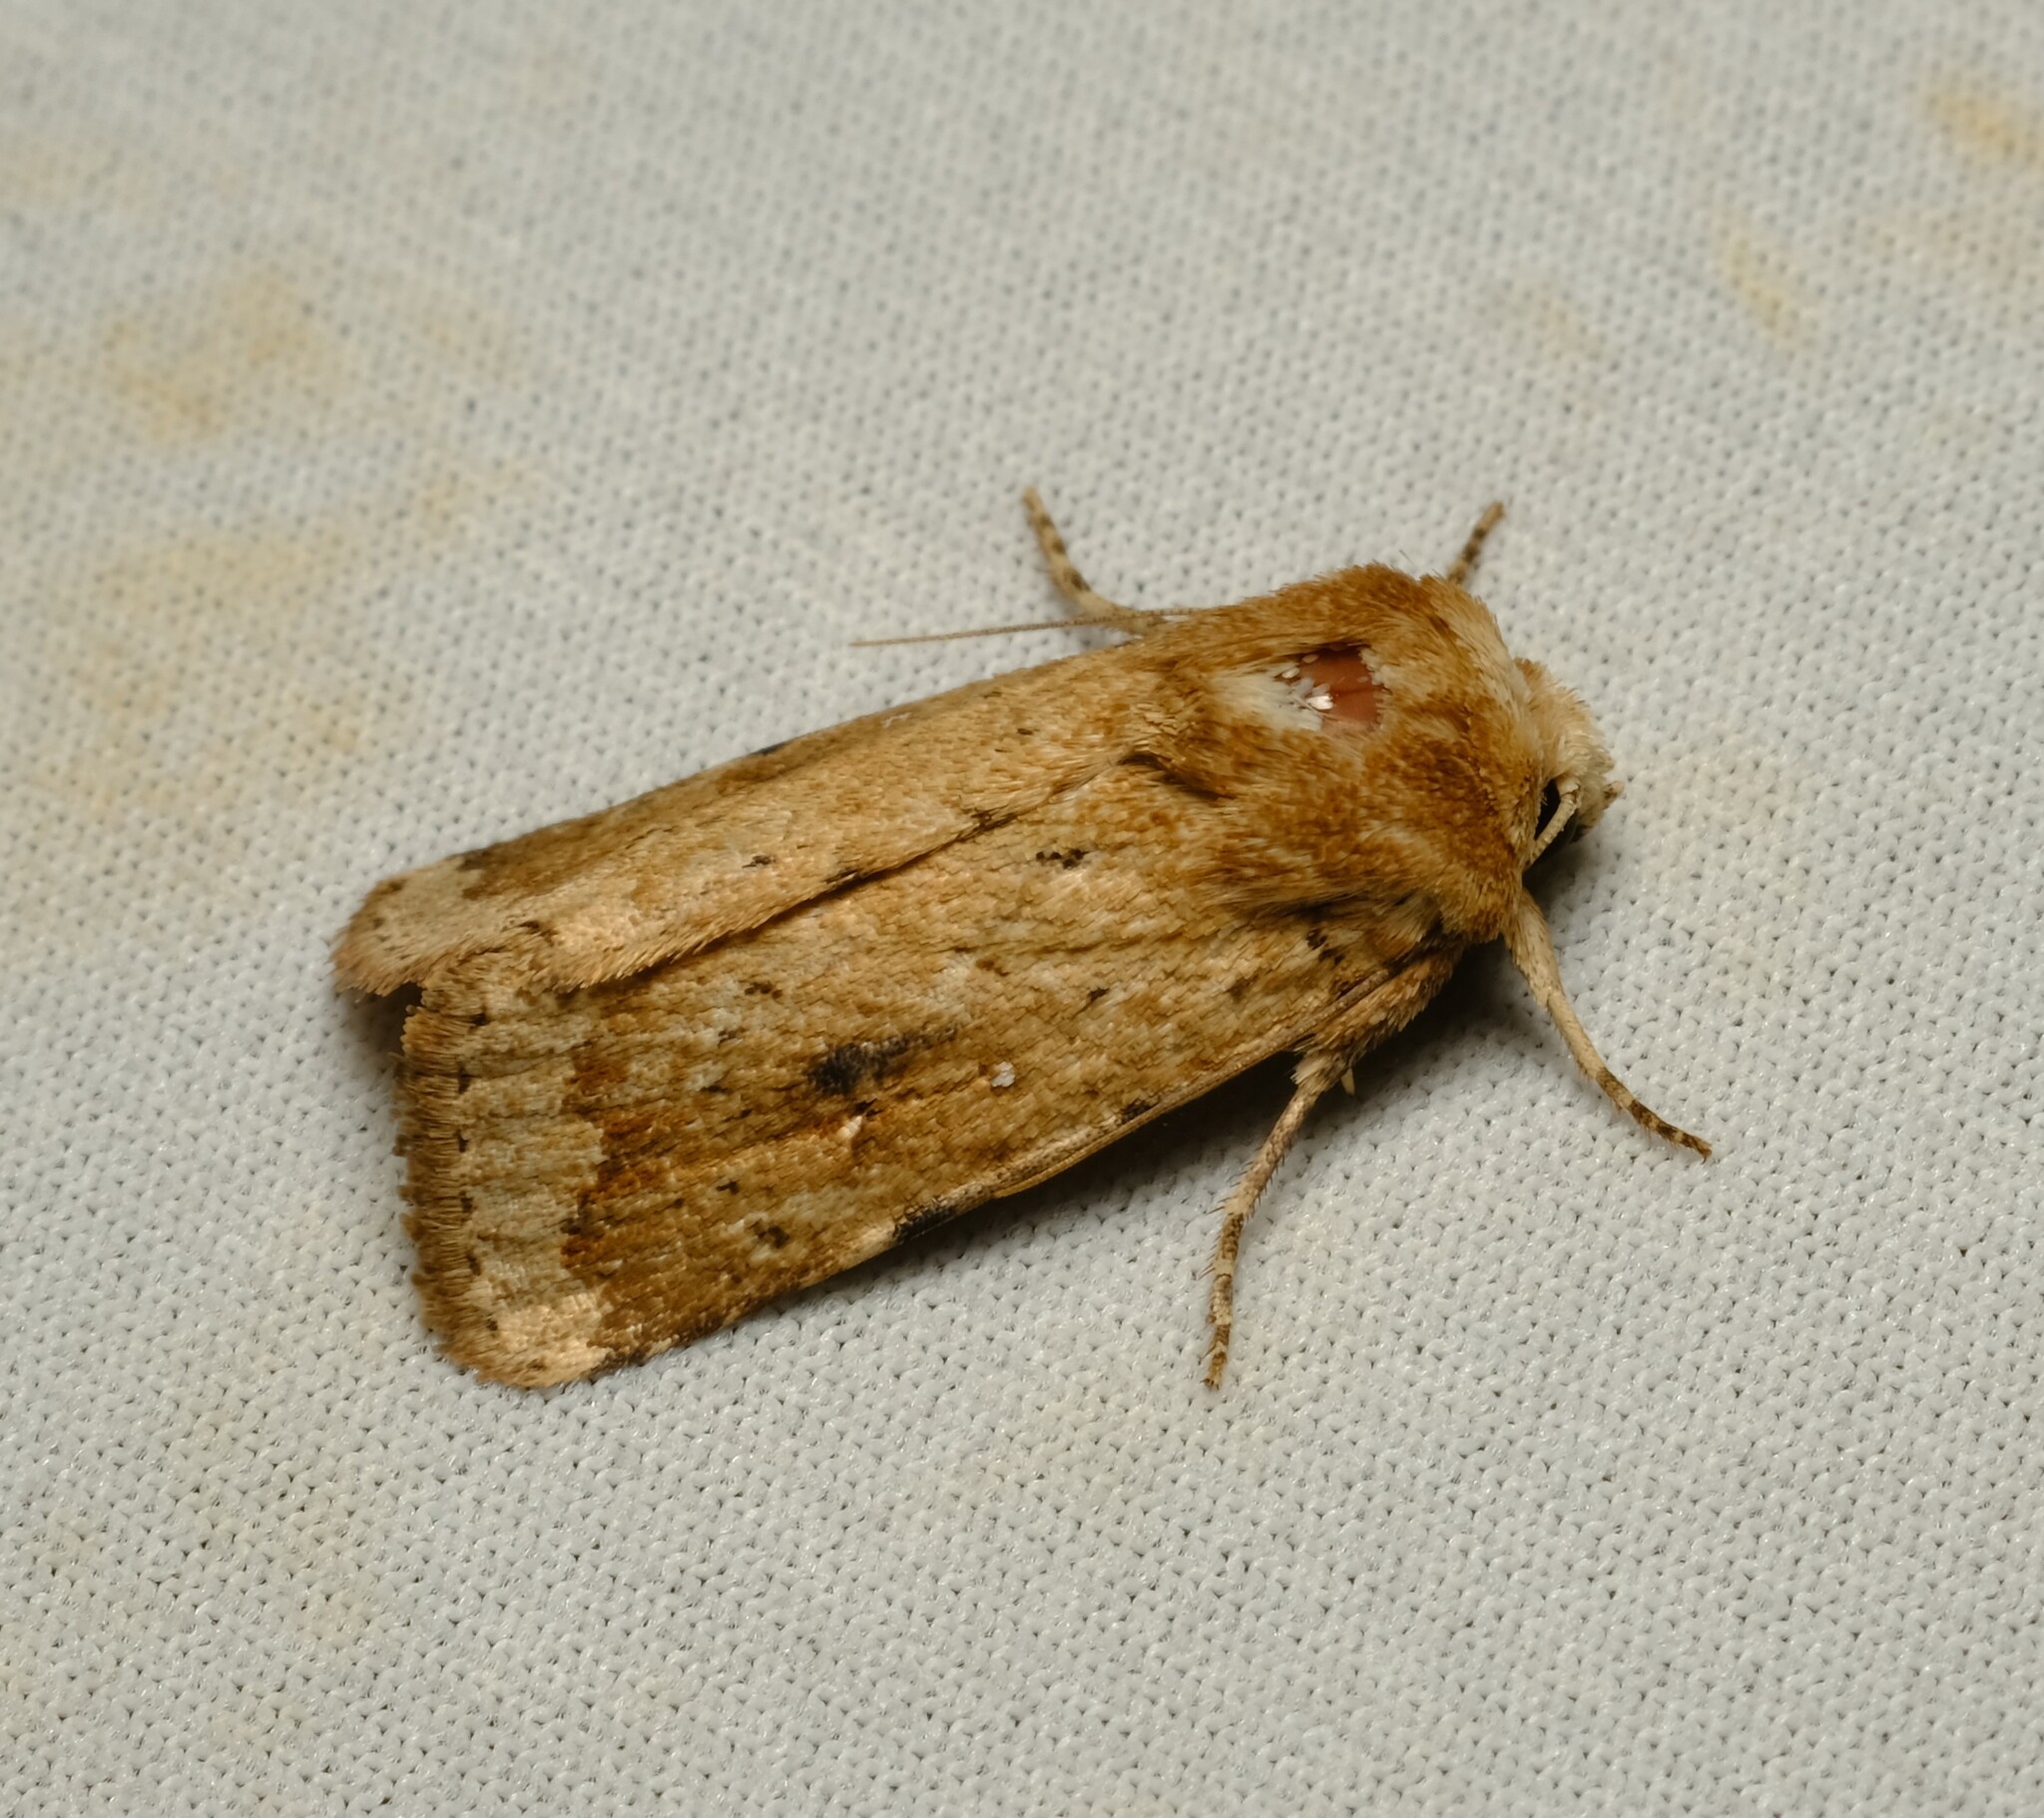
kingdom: Animalia
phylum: Arthropoda
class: Insecta
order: Lepidoptera
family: Noctuidae
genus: Proteuxoa
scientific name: Proteuxoa senta
